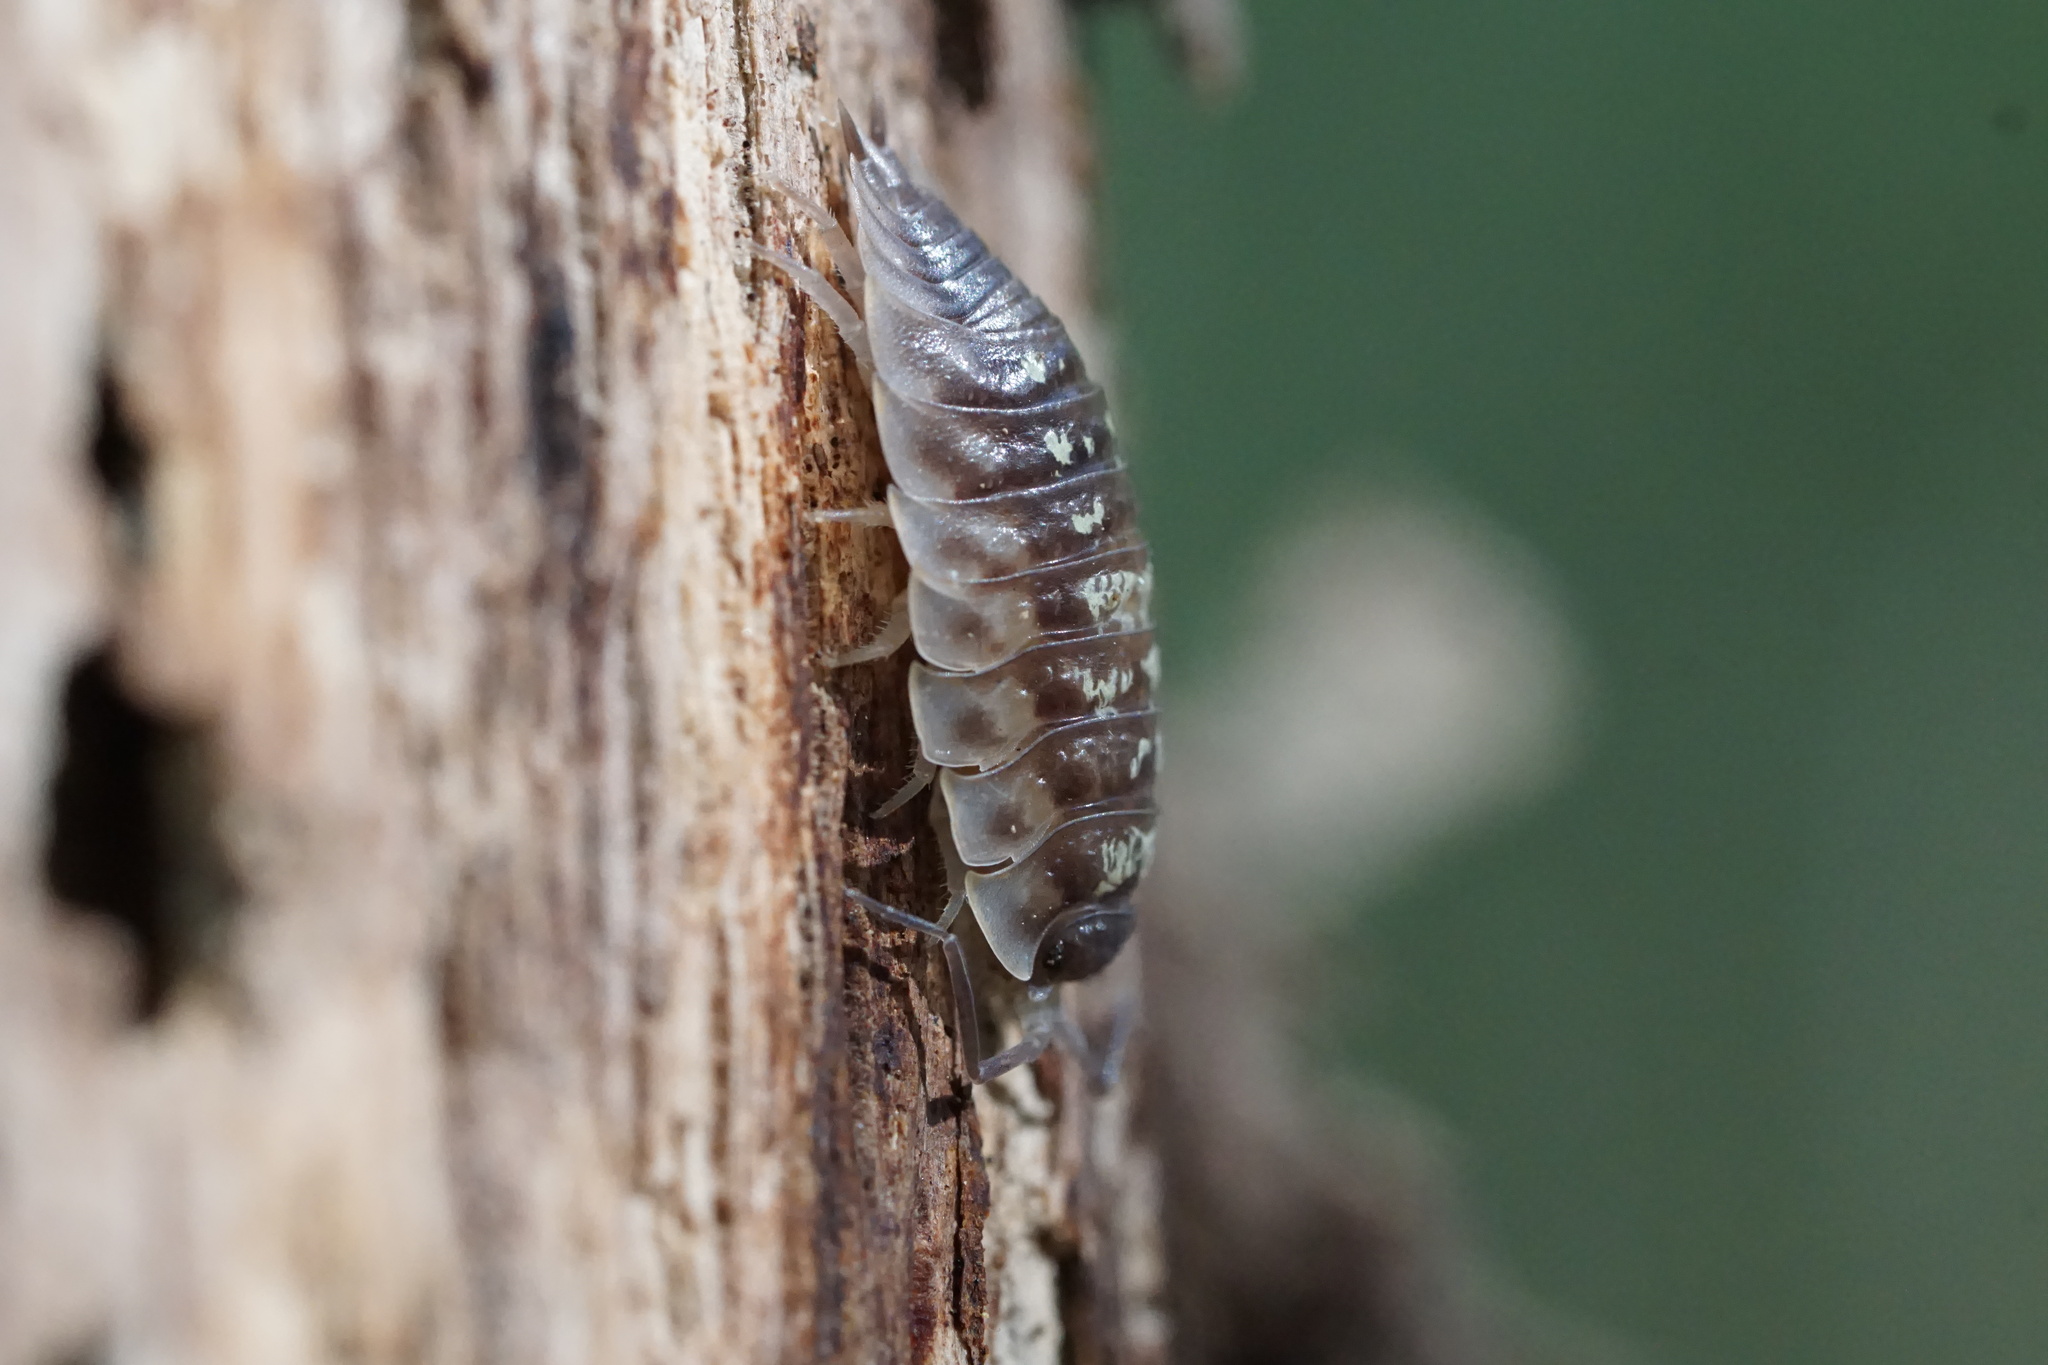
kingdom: Animalia
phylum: Arthropoda
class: Malacostraca
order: Isopoda
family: Oniscidae
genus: Oniscus
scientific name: Oniscus asellus
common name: Common shiny woodlouse
